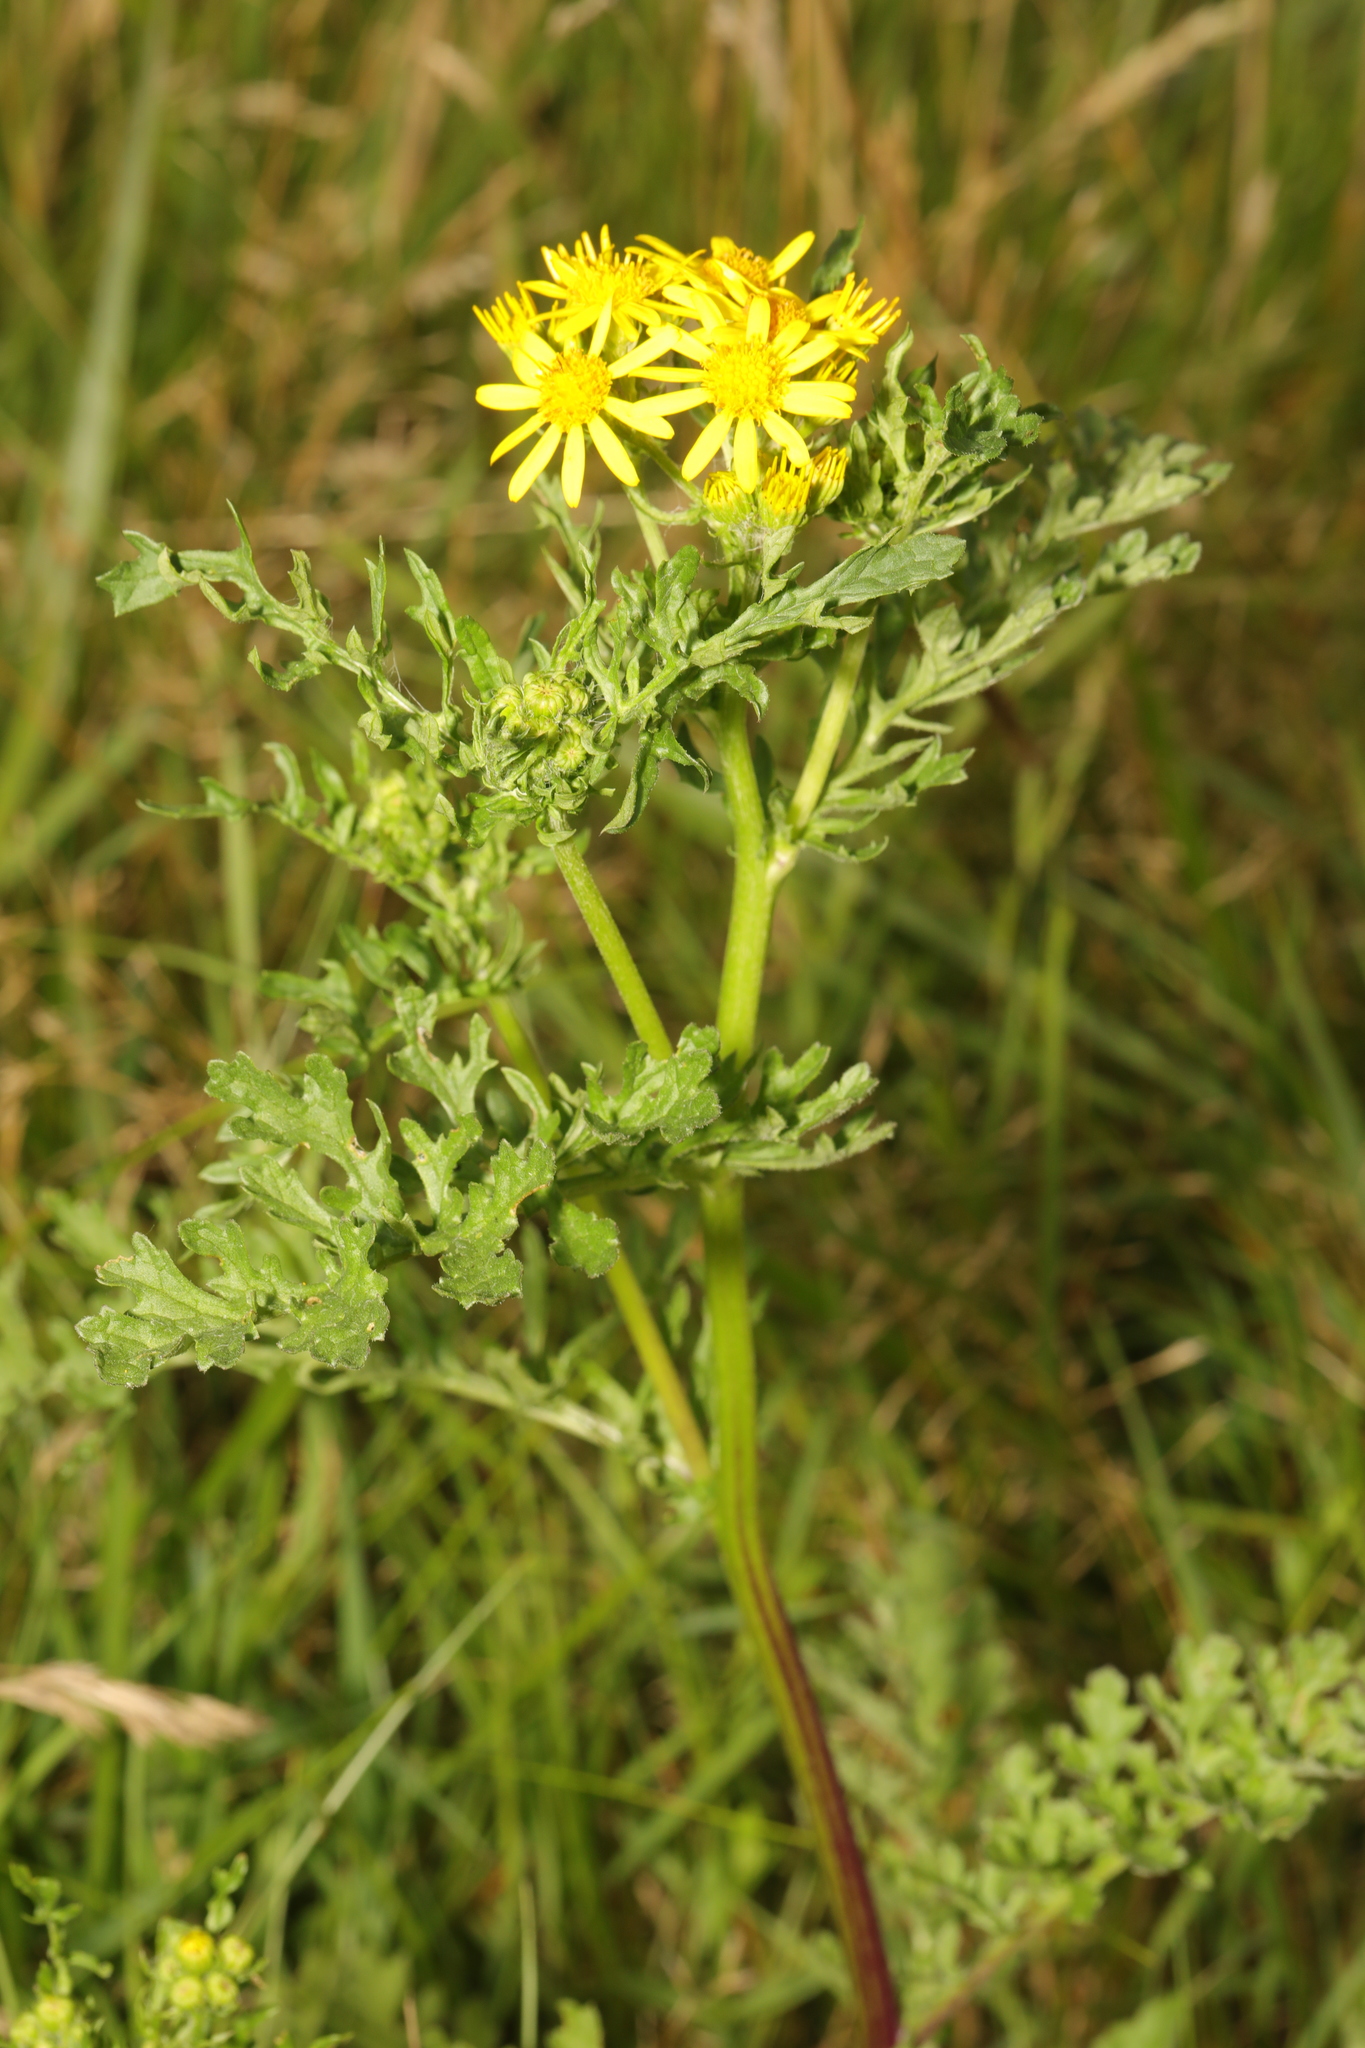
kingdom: Plantae
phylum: Tracheophyta
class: Magnoliopsida
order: Asterales
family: Asteraceae
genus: Jacobaea
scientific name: Jacobaea vulgaris
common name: Stinking willie
